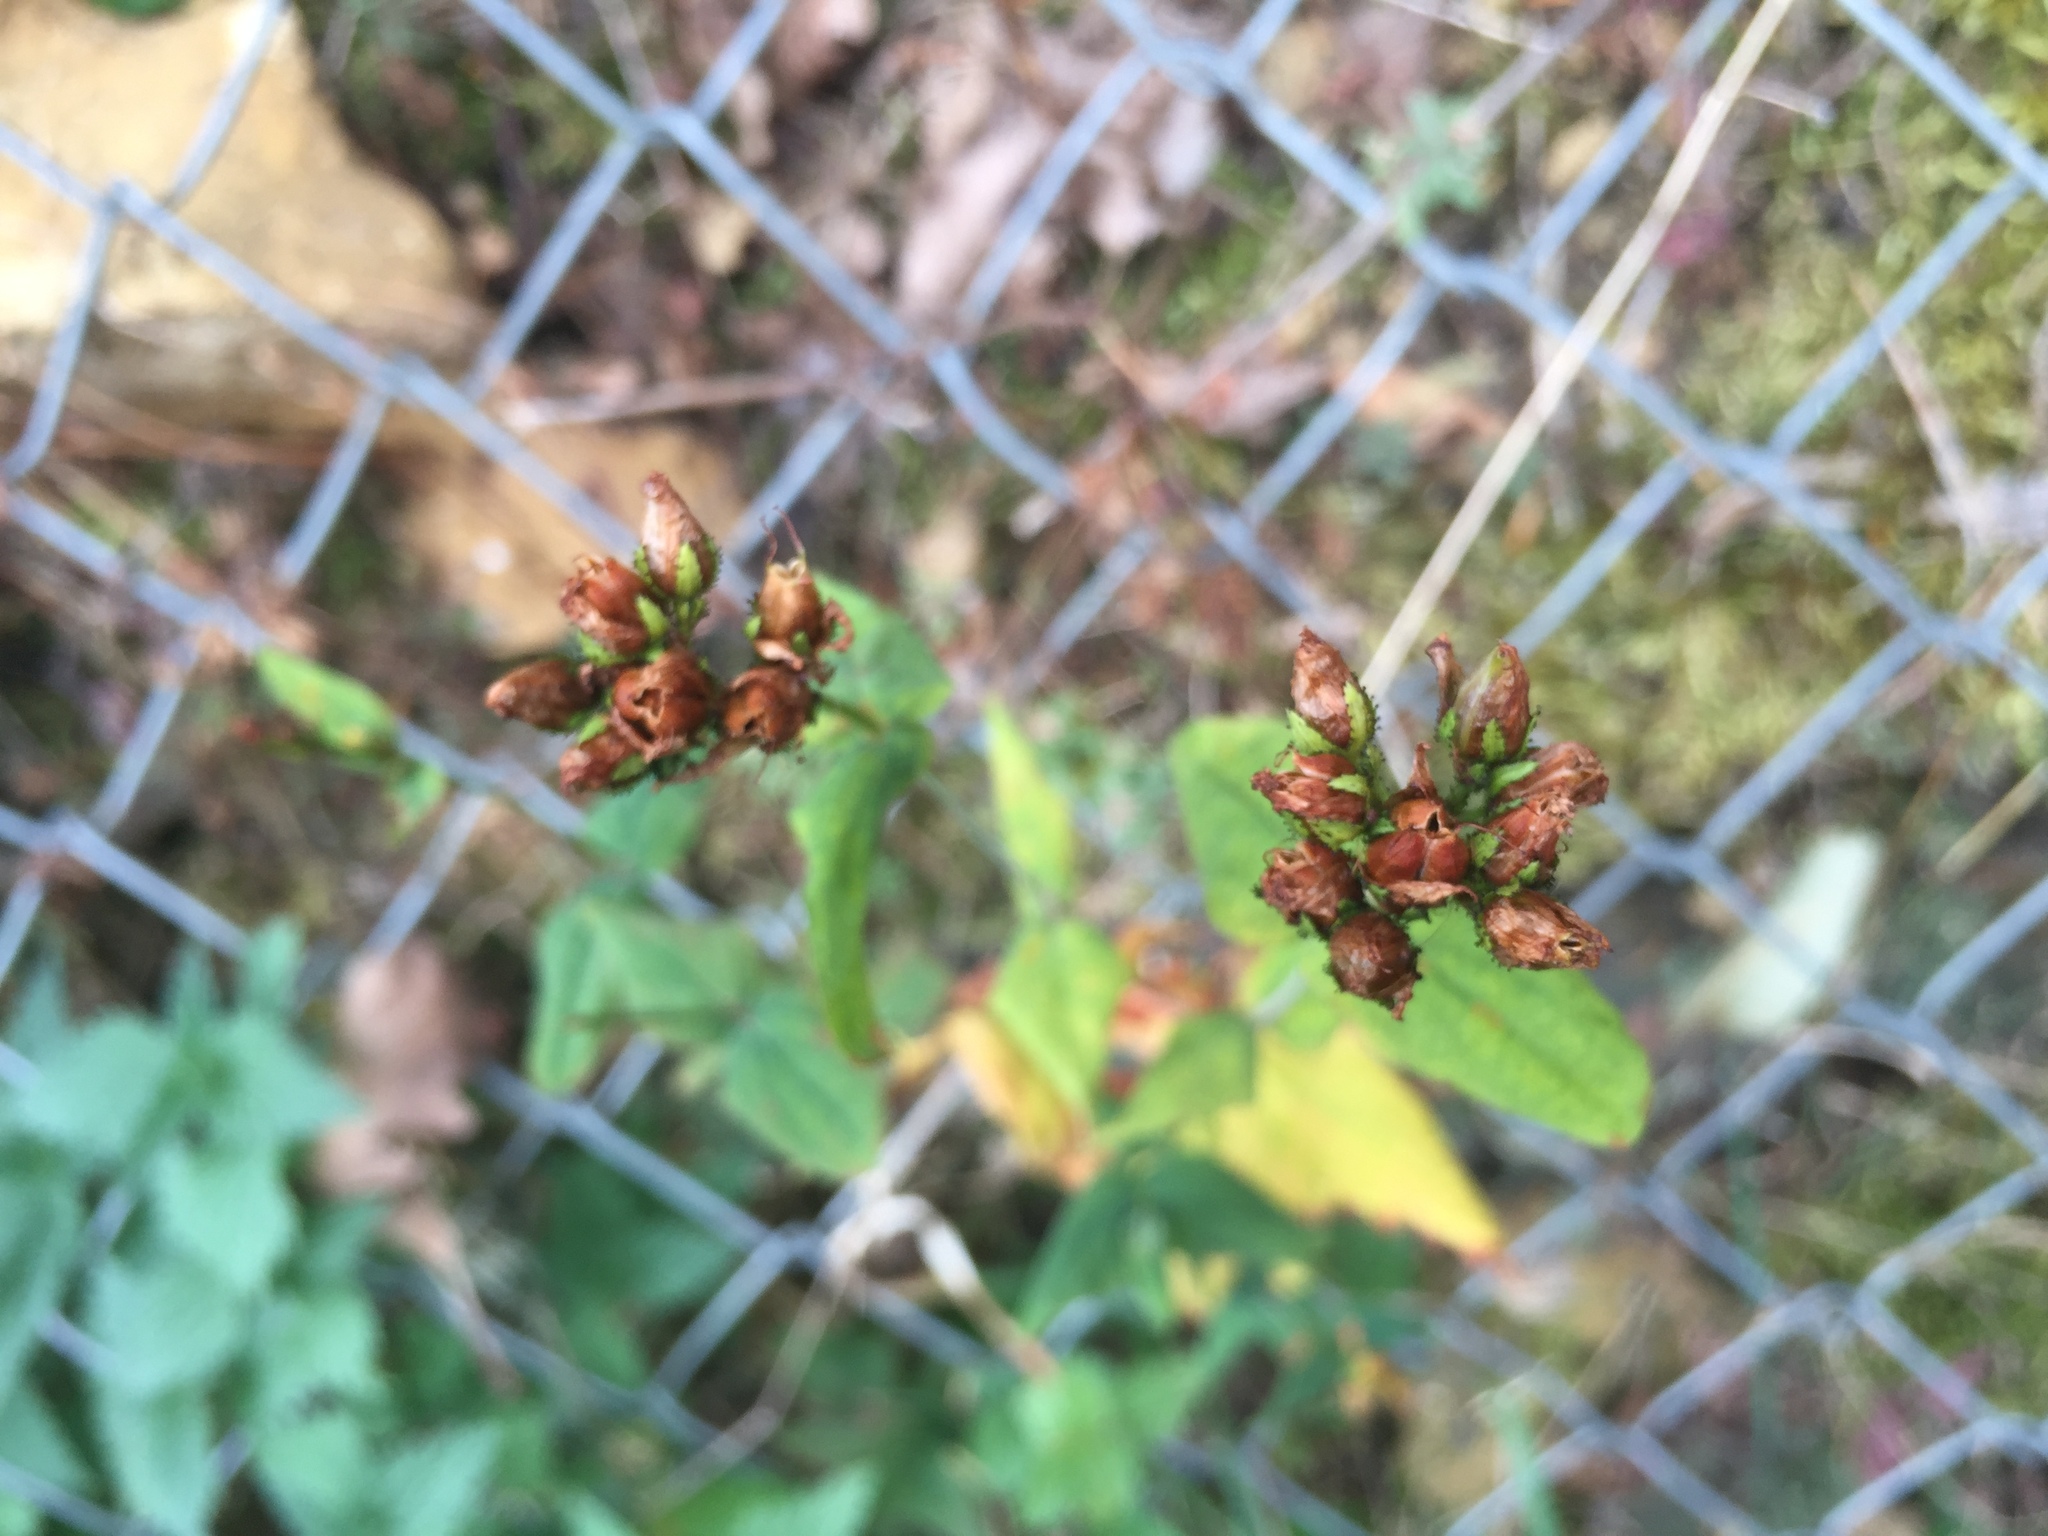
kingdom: Plantae
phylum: Tracheophyta
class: Magnoliopsida
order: Malpighiales
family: Hypericaceae
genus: Hypericum
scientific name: Hypericum montanum
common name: Pale st. john's-wort
